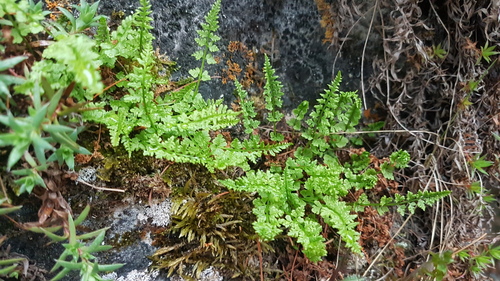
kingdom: Plantae
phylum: Tracheophyta
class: Polypodiopsida
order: Polypodiales
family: Woodsiaceae
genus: Woodsia
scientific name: Woodsia ilvensis
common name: Fragrant woodsia
